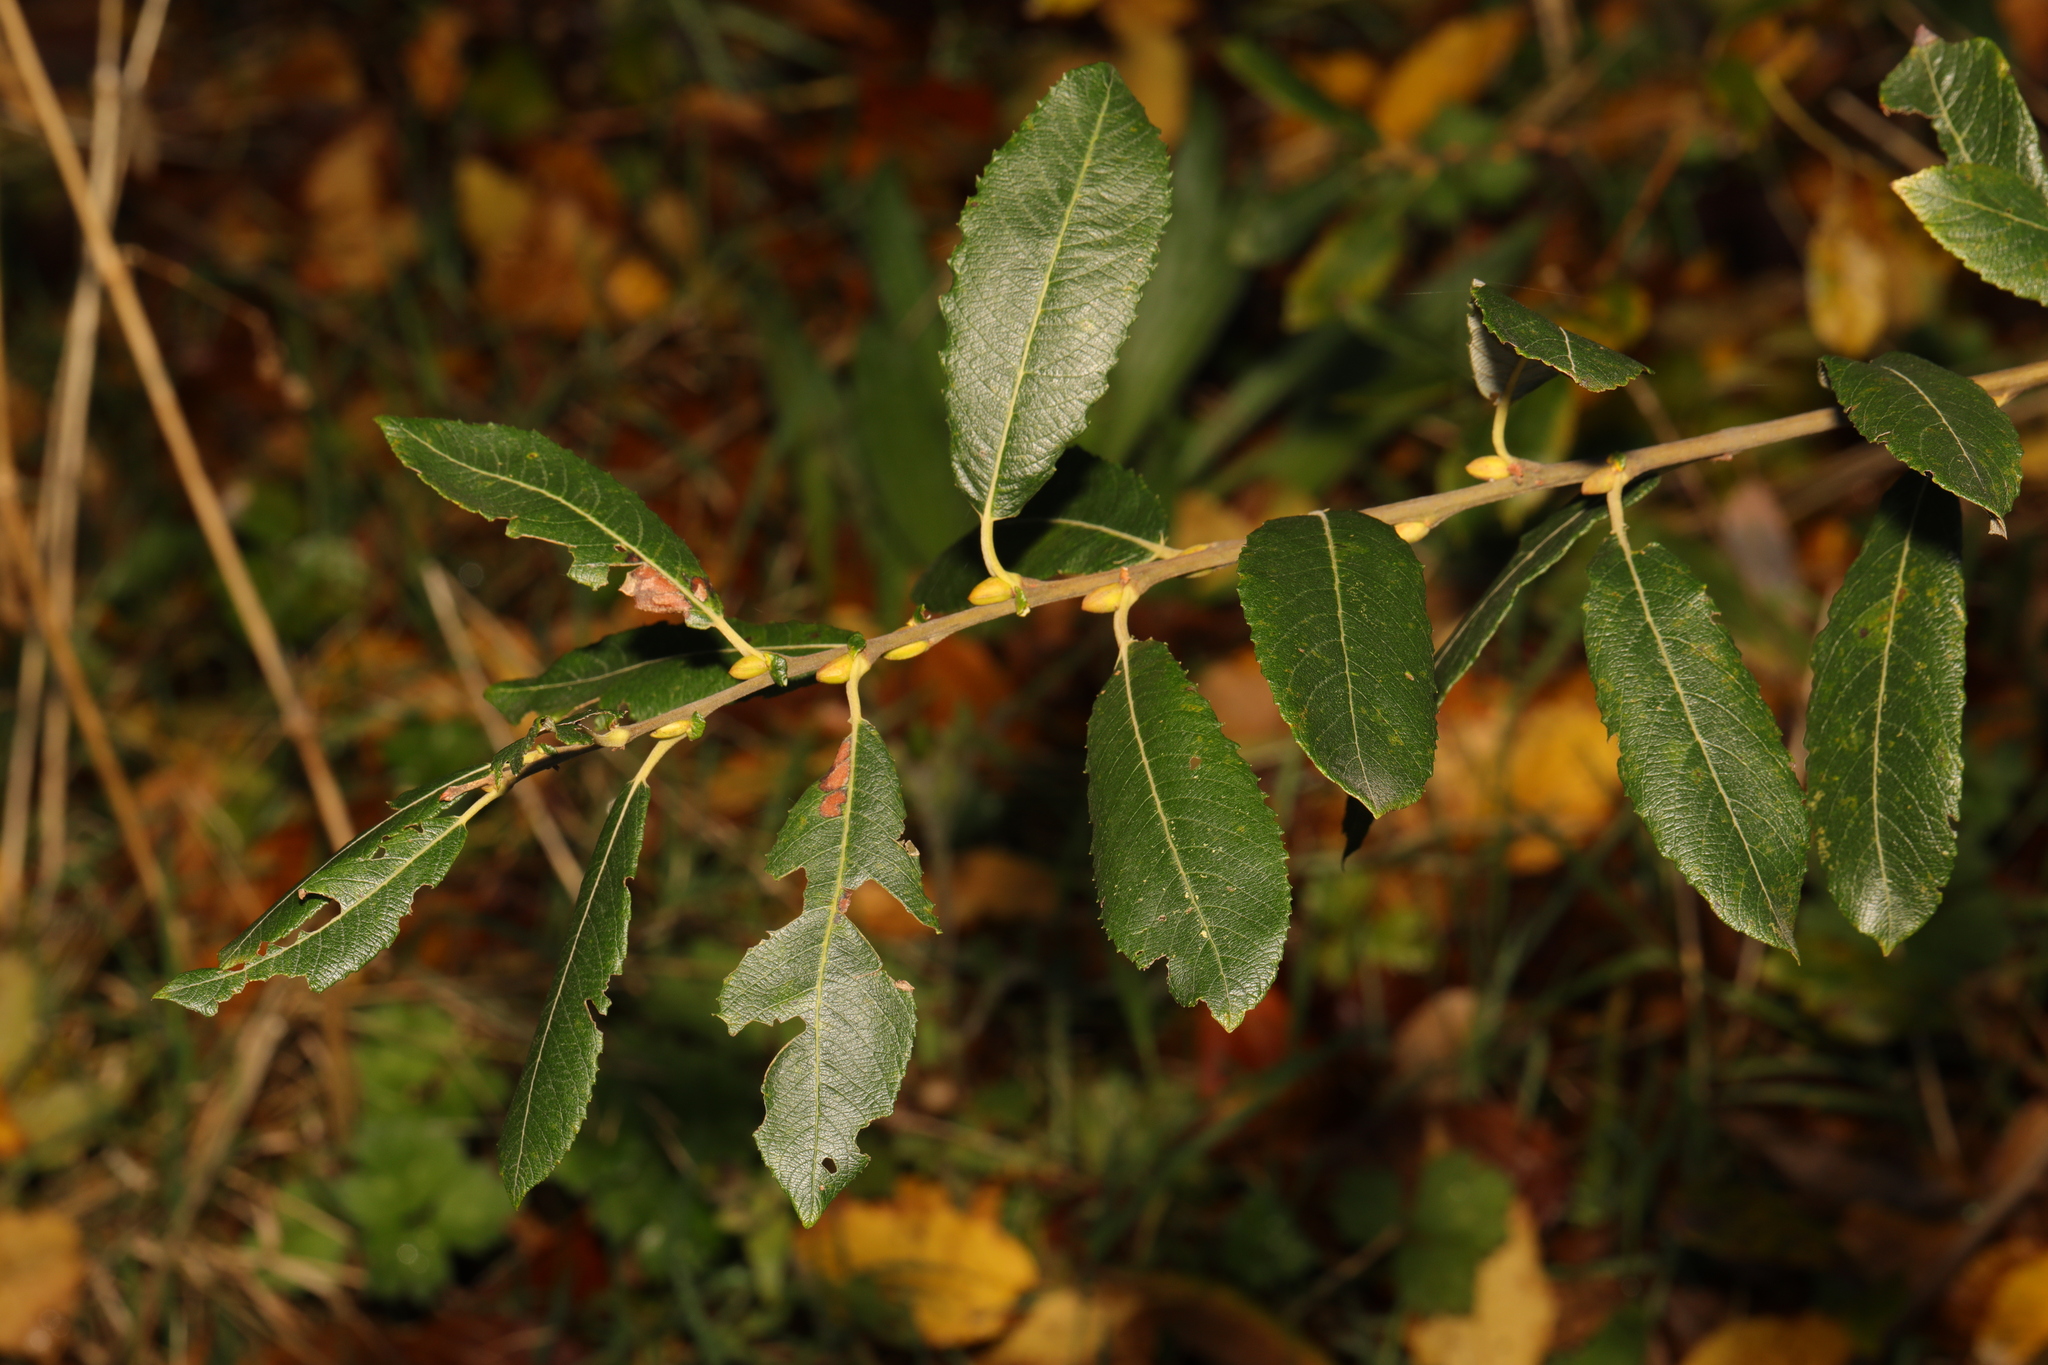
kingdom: Plantae
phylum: Tracheophyta
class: Magnoliopsida
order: Malpighiales
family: Salicaceae
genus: Salix
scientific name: Salix cinerea
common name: Common sallow
